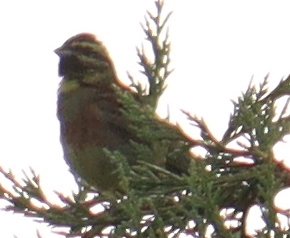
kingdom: Animalia
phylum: Chordata
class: Aves
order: Passeriformes
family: Emberizidae
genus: Emberiza
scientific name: Emberiza cirlus
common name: Cirl bunting
